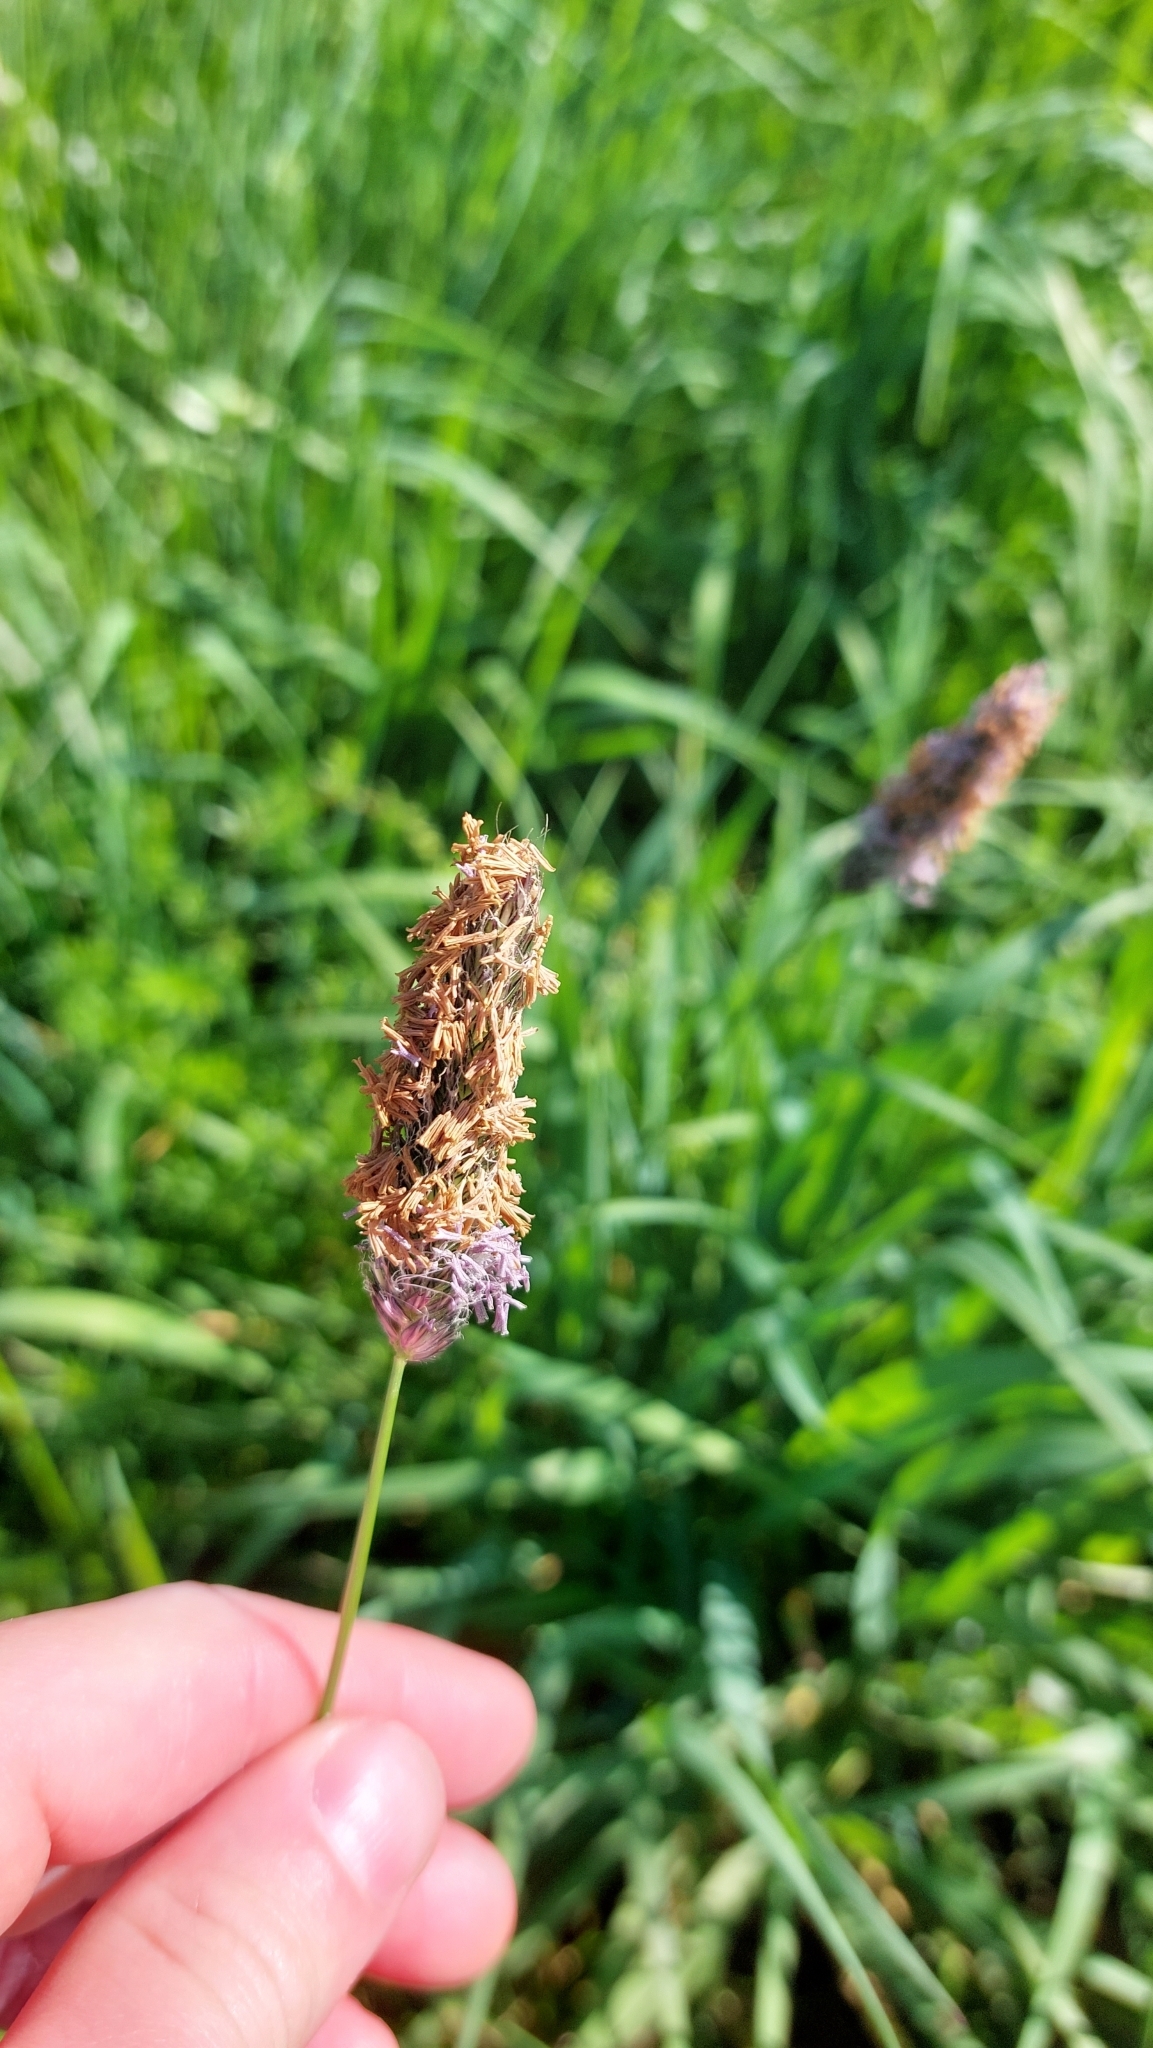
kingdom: Plantae
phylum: Tracheophyta
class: Liliopsida
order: Poales
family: Poaceae
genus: Alopecurus
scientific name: Alopecurus pratensis
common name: Meadow foxtail
